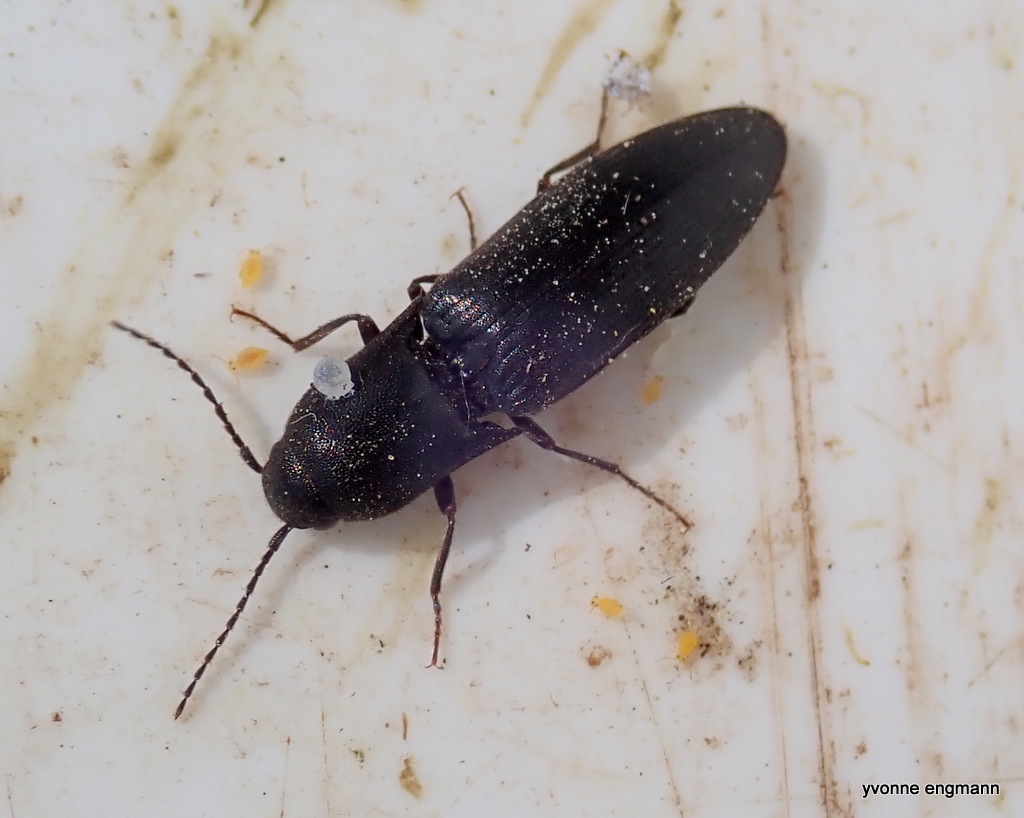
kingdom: Animalia
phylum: Arthropoda
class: Insecta
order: Coleoptera
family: Elateridae
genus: Ectinus
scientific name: Ectinus aterrimus
